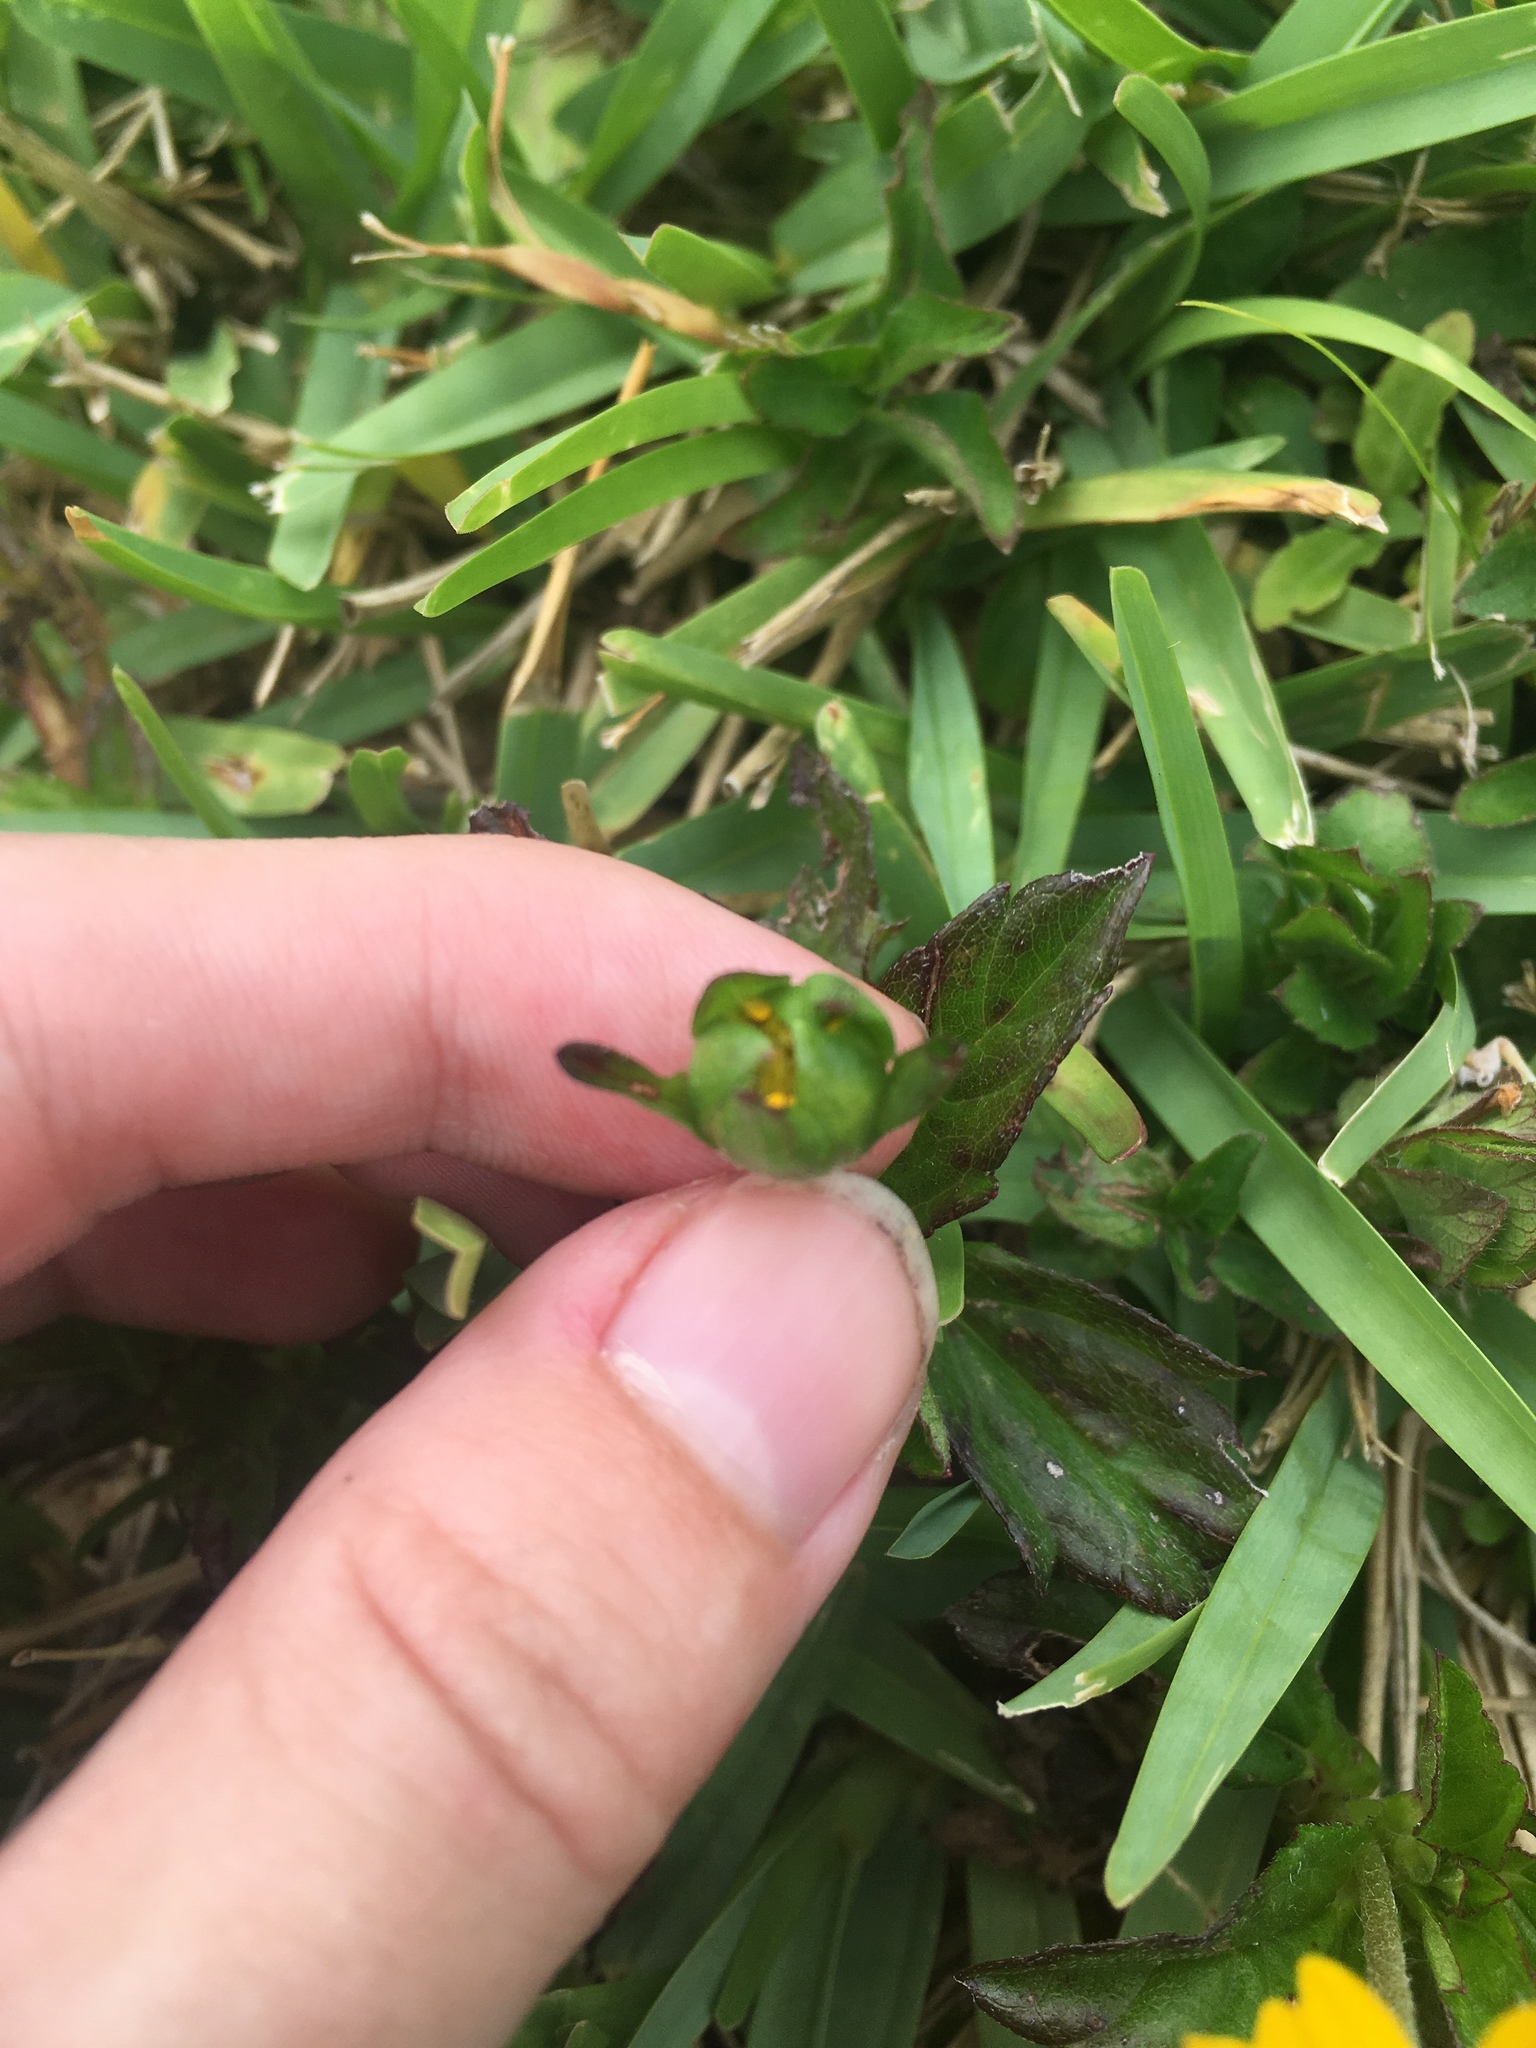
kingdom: Plantae
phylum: Tracheophyta
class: Magnoliopsida
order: Asterales
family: Asteraceae
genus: Sphagneticola
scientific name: Sphagneticola trilobata
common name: Bay biscayne creeping-oxeye
